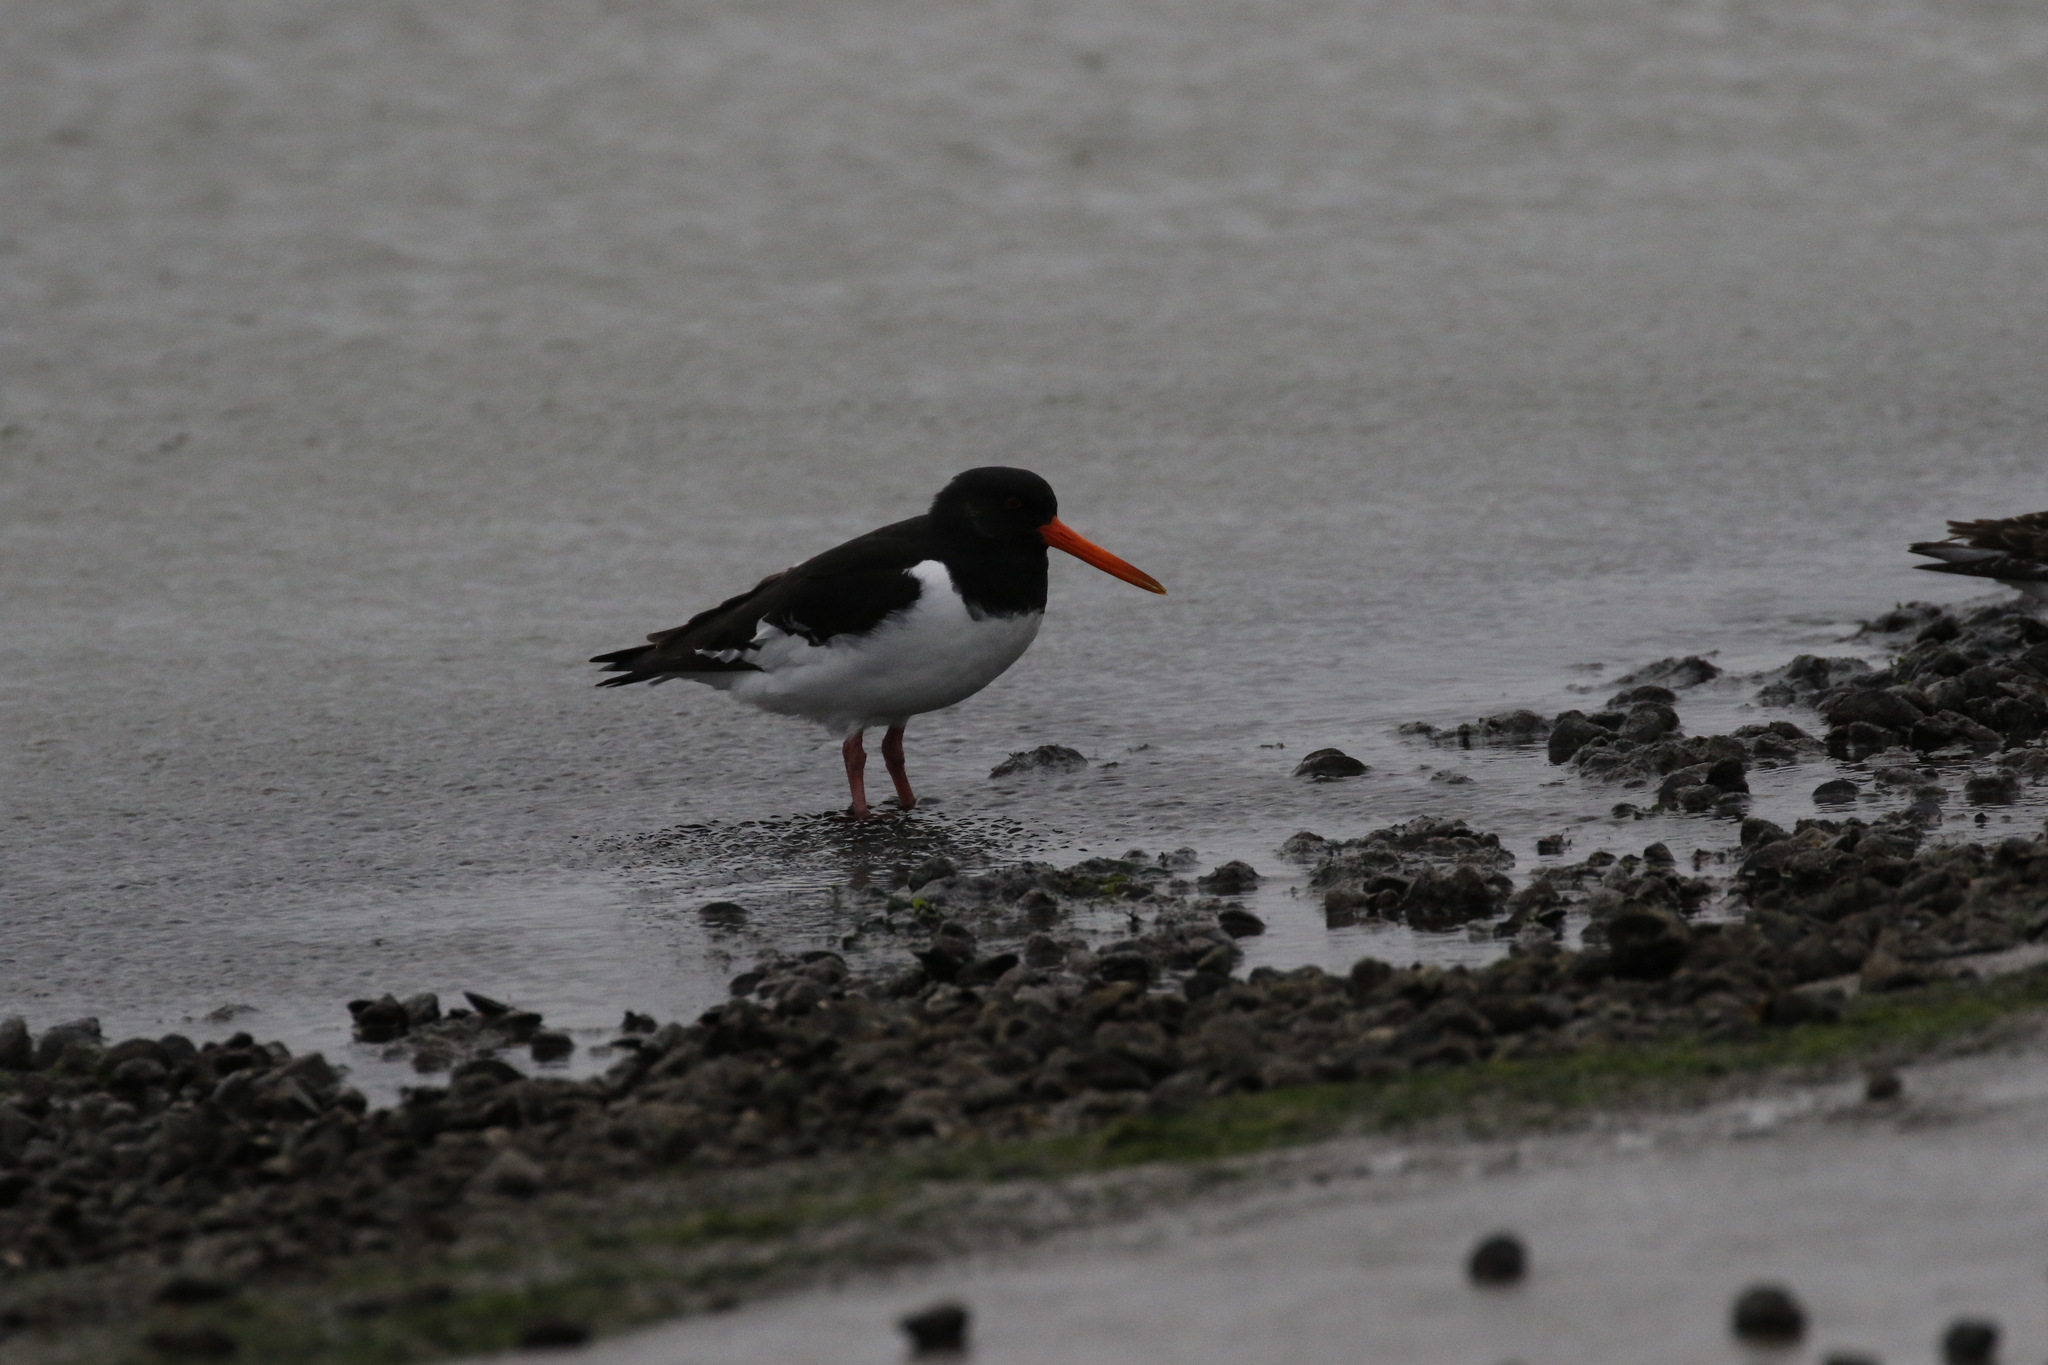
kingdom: Animalia
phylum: Chordata
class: Aves
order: Charadriiformes
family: Haematopodidae
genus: Haematopus
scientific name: Haematopus ostralegus
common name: Eurasian oystercatcher
